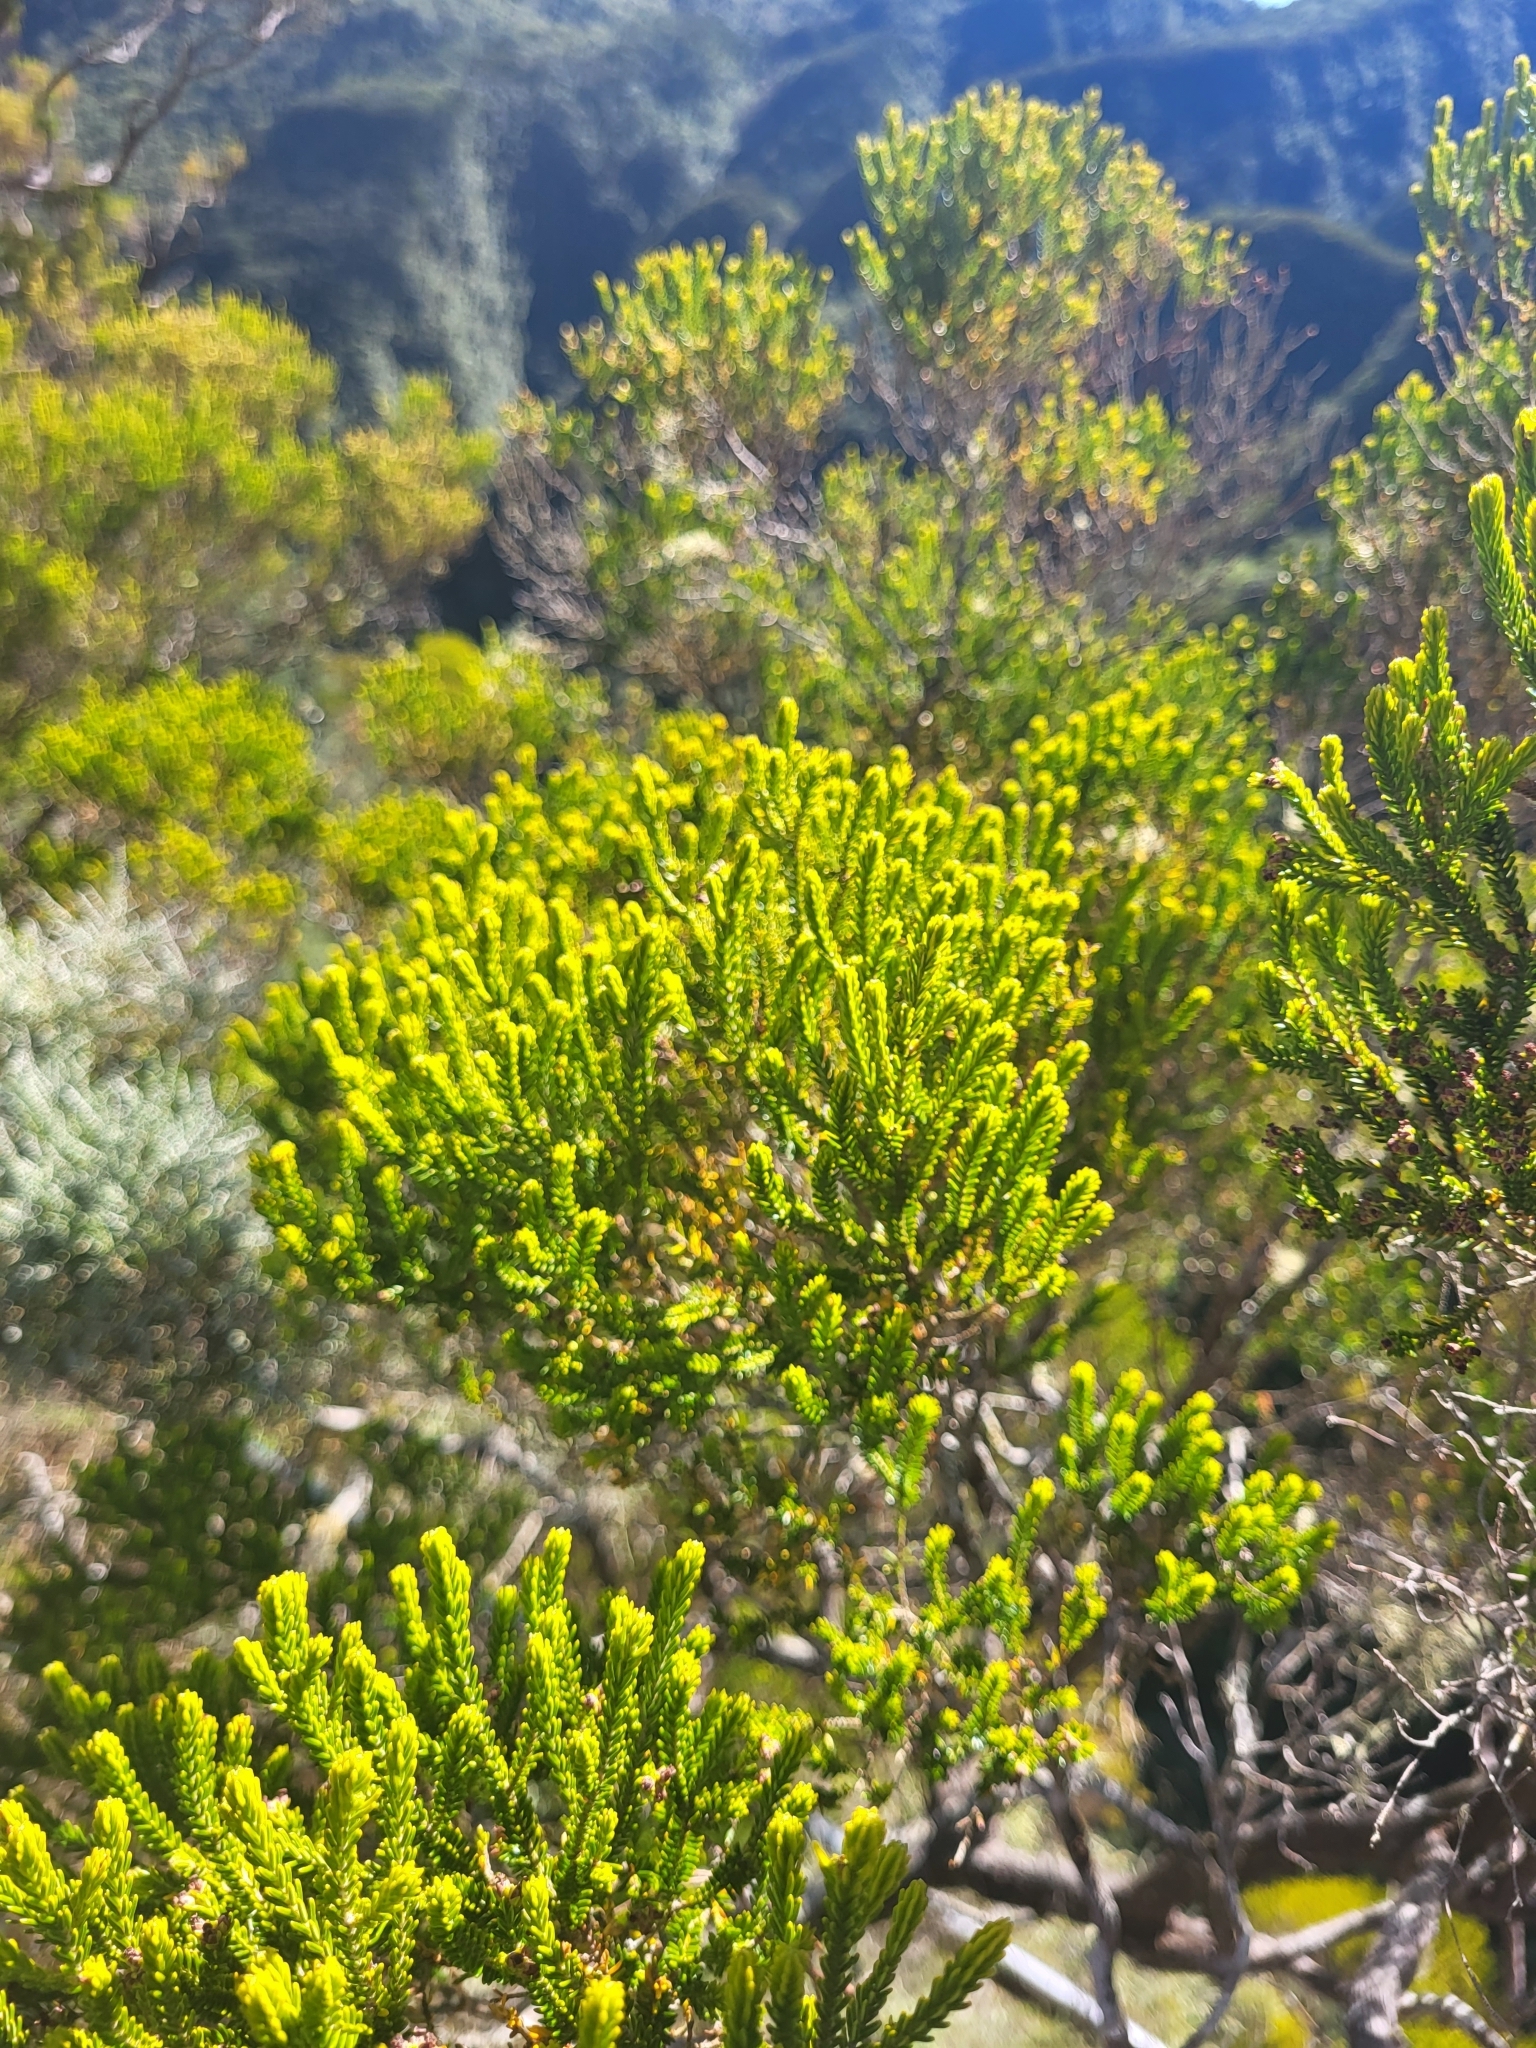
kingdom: Plantae
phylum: Tracheophyta
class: Magnoliopsida
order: Ericales
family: Ericaceae
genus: Erica
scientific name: Erica reunionensis
